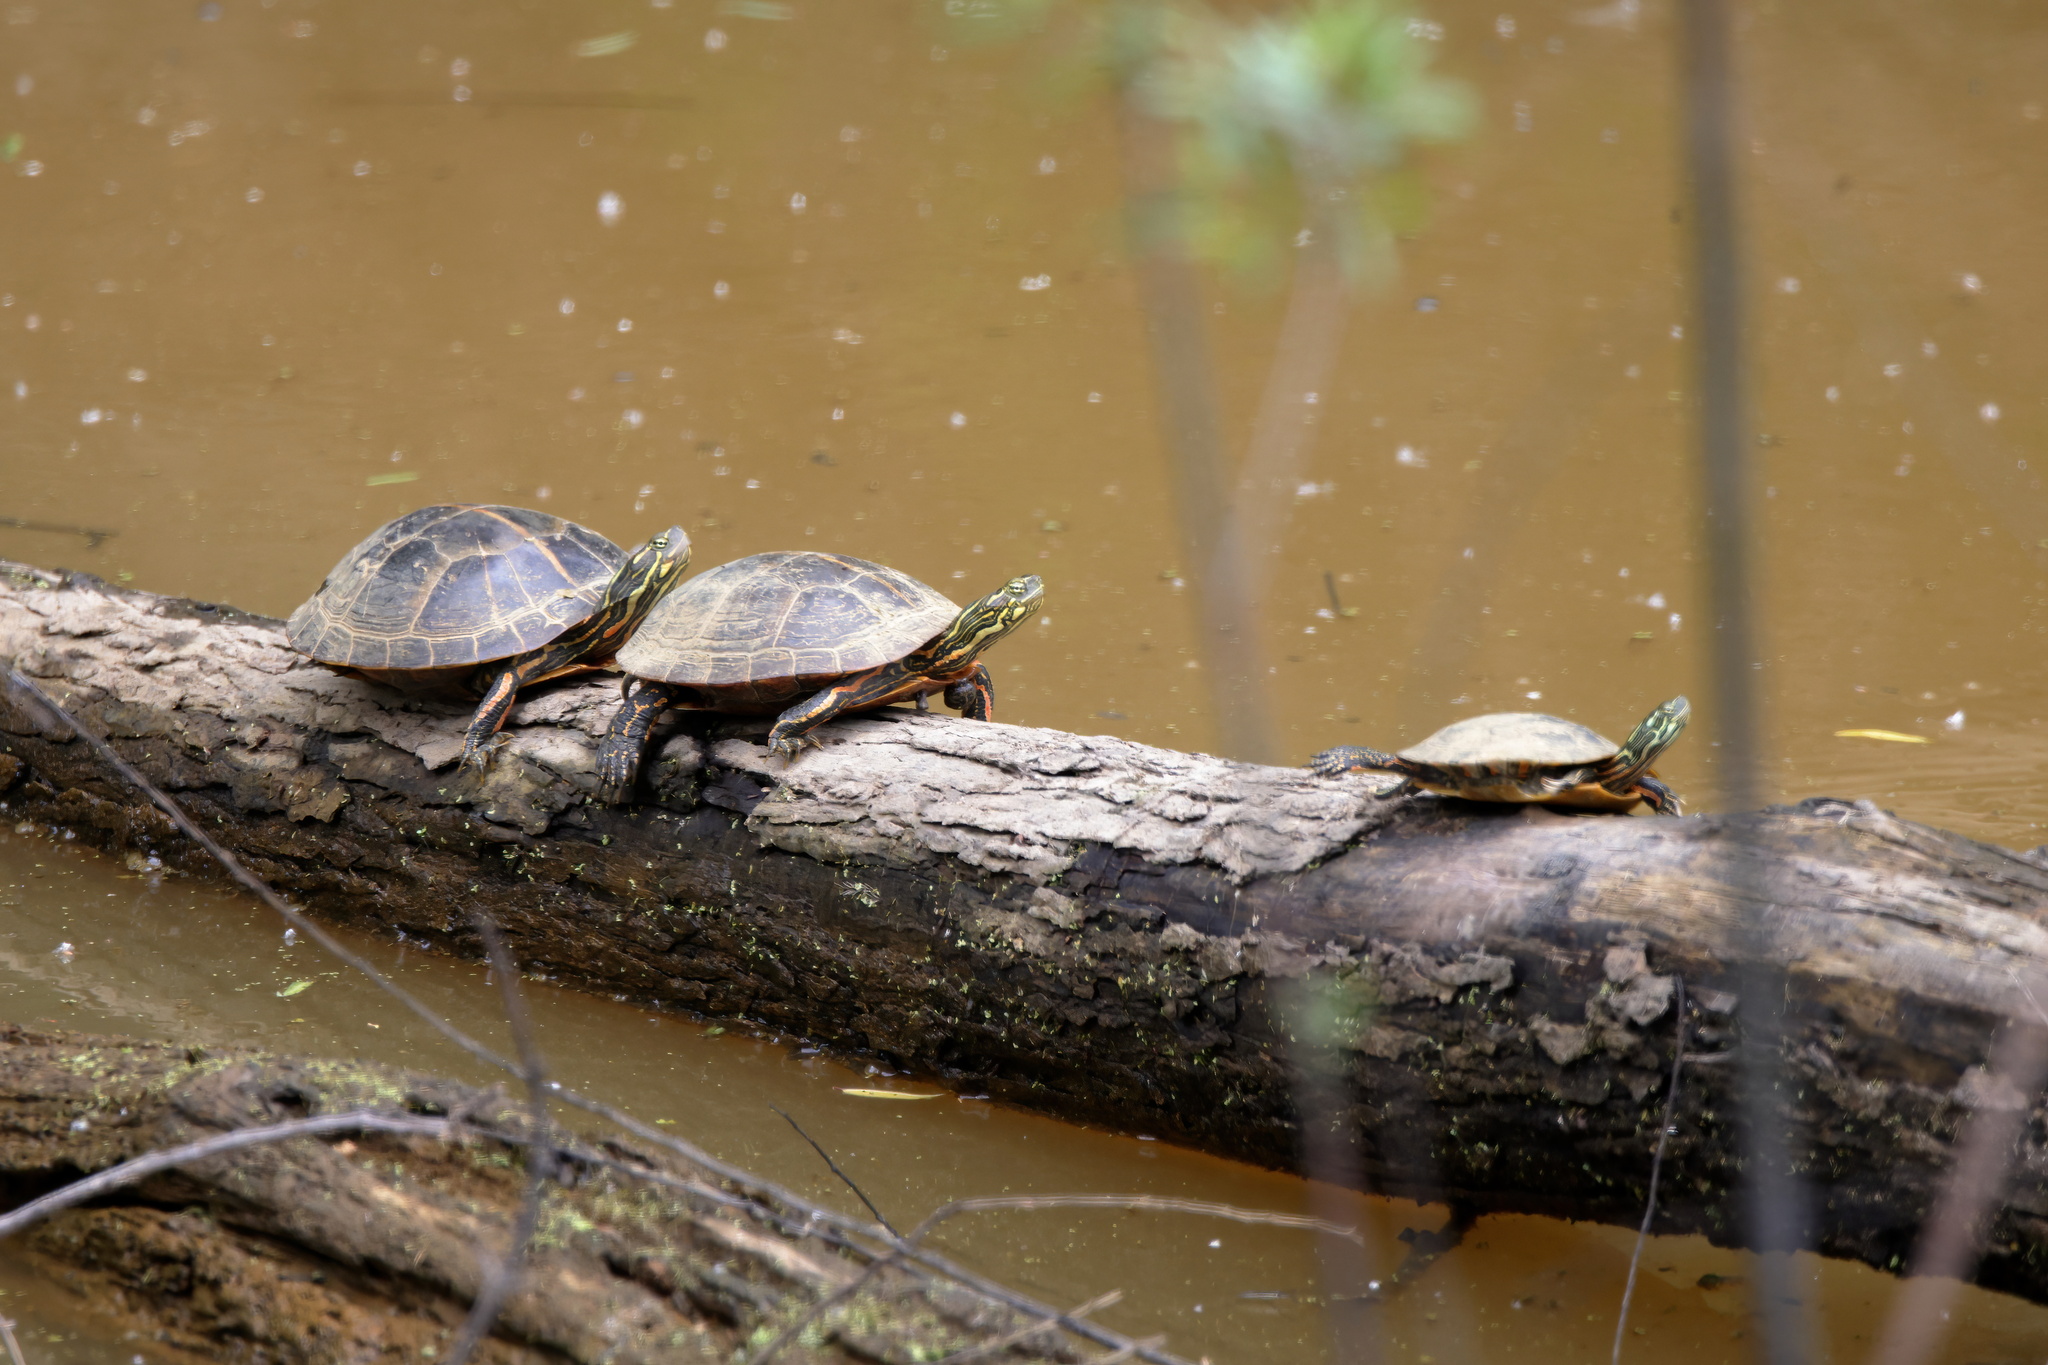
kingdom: Animalia
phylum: Chordata
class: Testudines
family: Emydidae
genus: Chrysemys
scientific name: Chrysemys dorsalis
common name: Southern painted turtle
